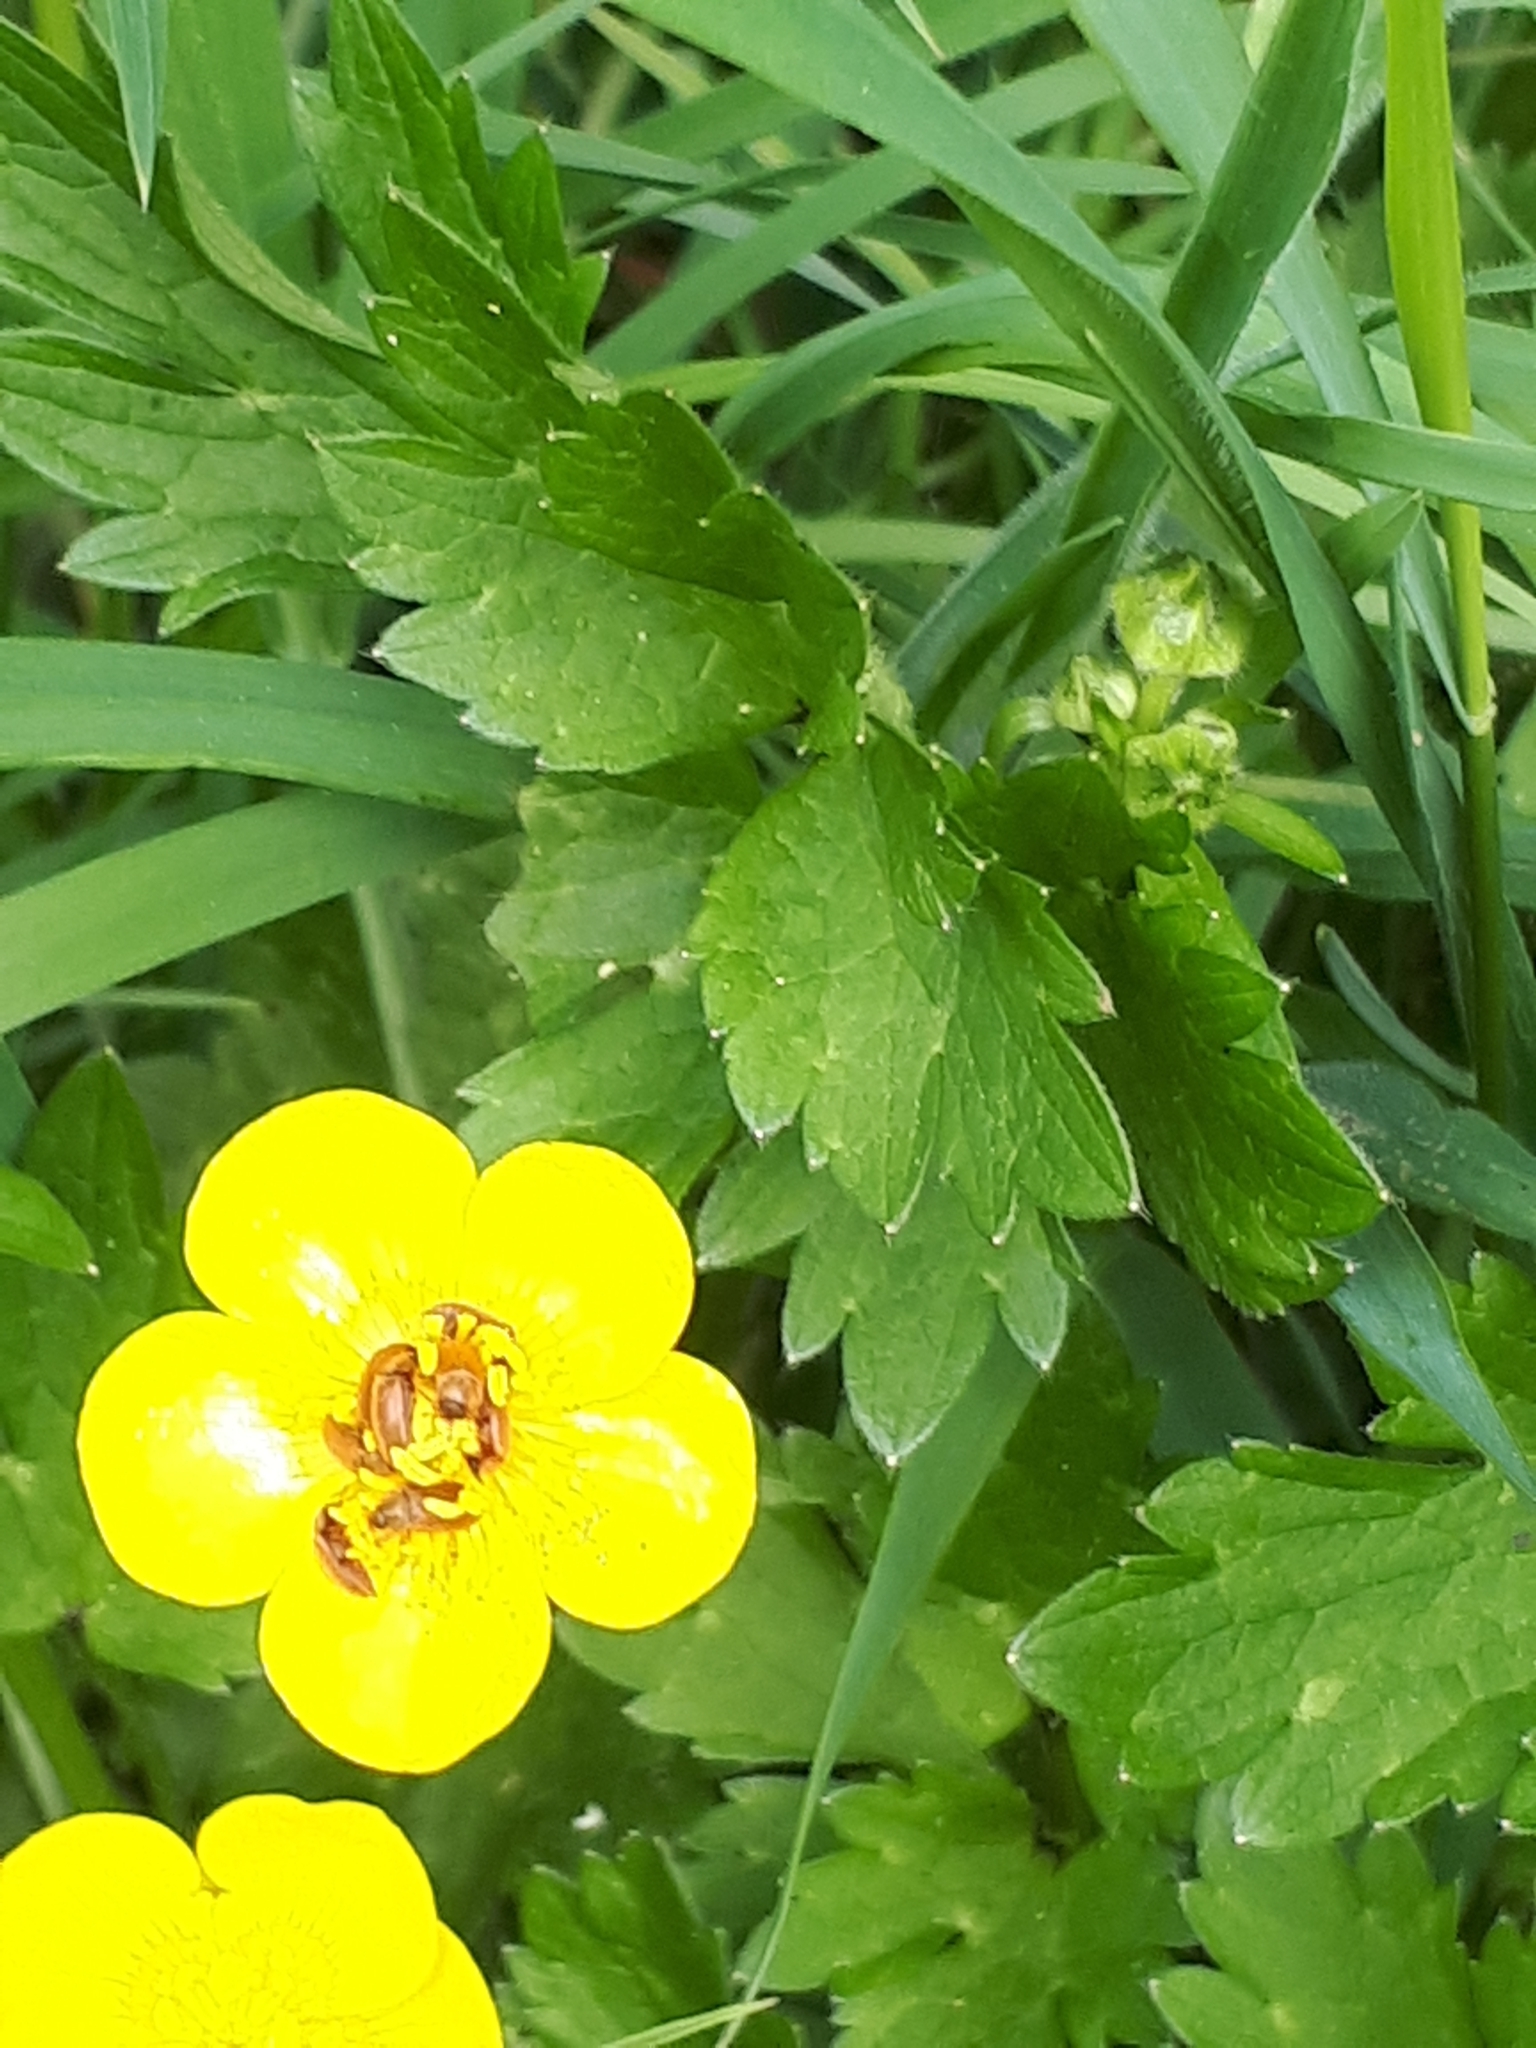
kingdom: Animalia
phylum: Arthropoda
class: Insecta
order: Coleoptera
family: Byturidae
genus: Byturus
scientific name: Byturus ochraceus
